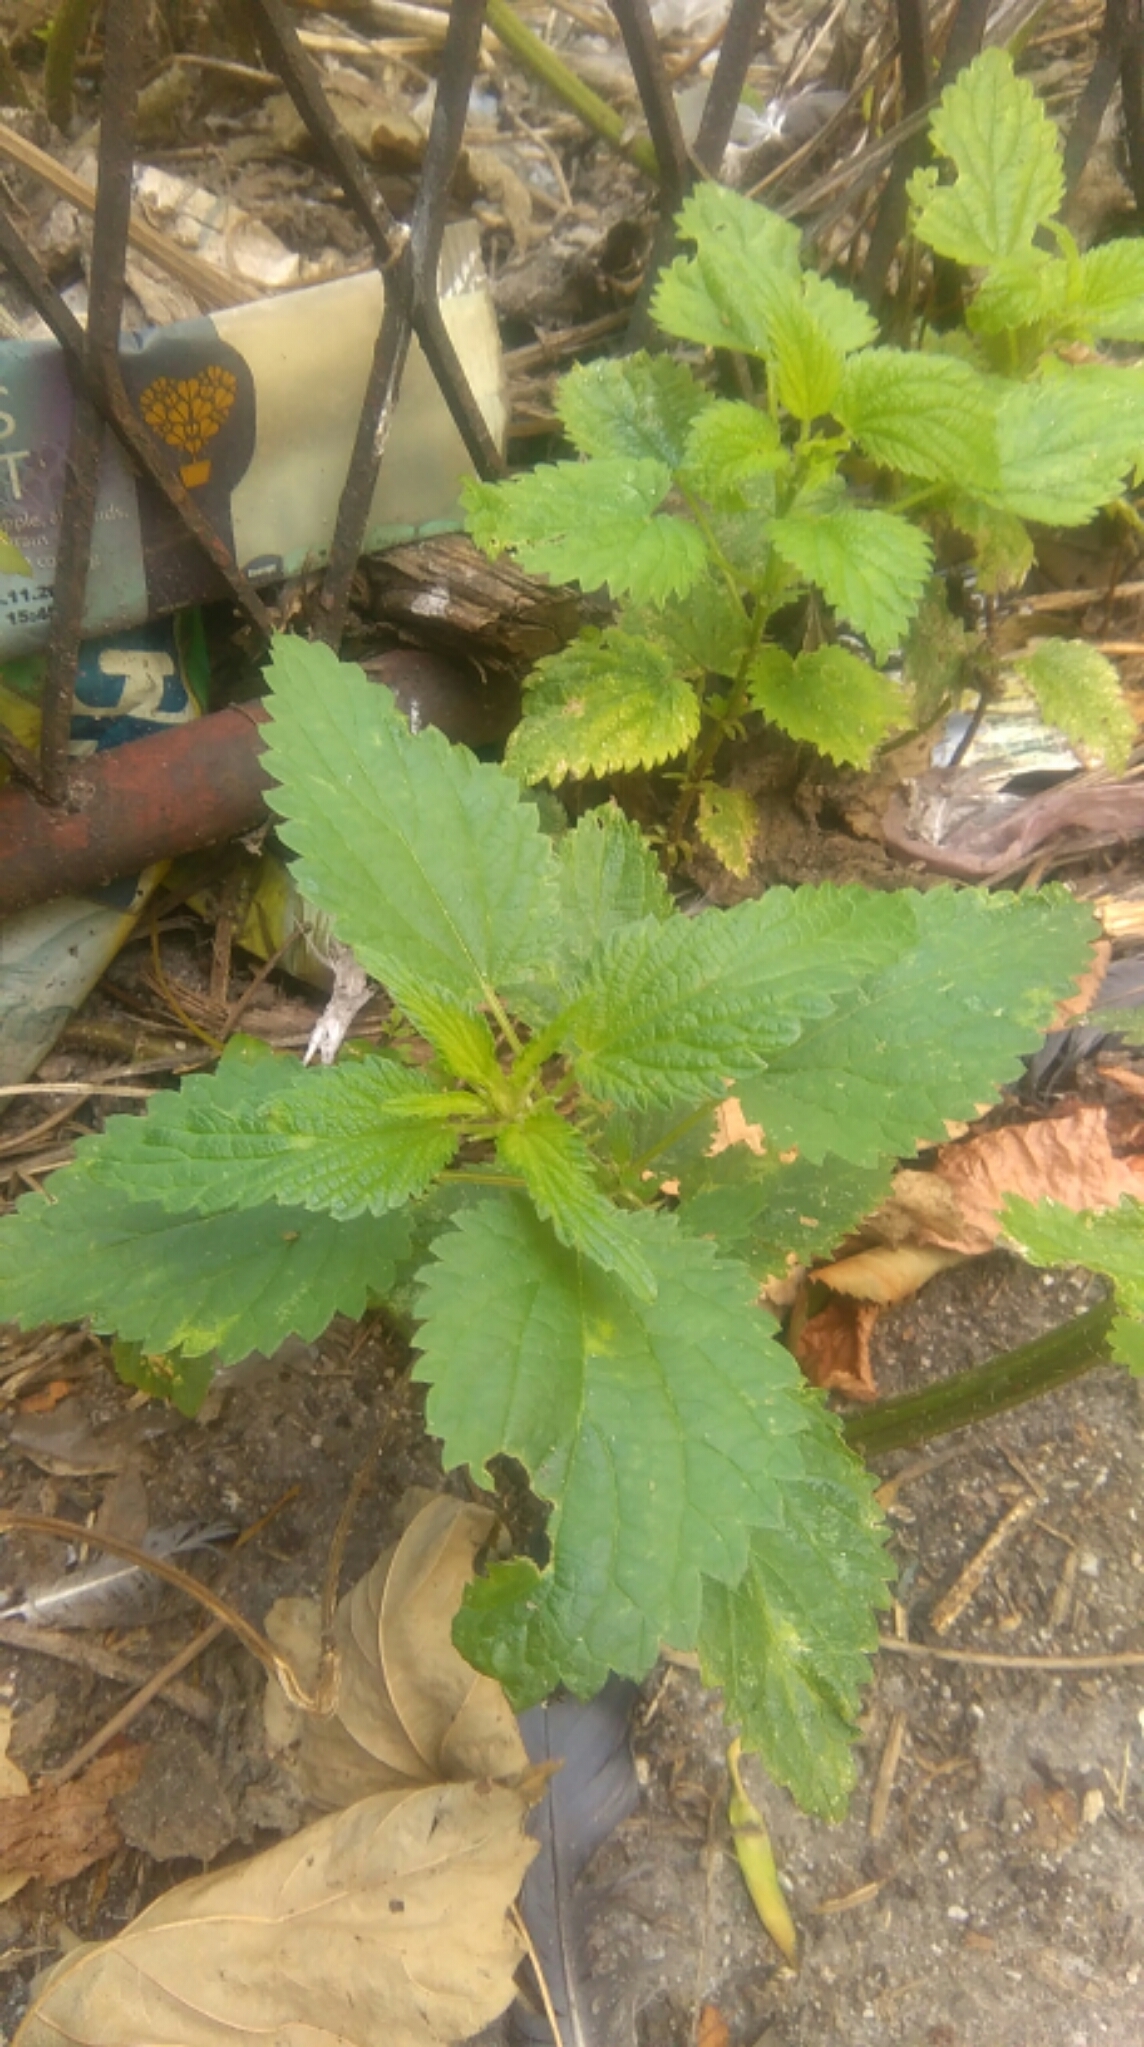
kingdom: Plantae
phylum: Tracheophyta
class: Magnoliopsida
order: Rosales
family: Urticaceae
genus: Urtica
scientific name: Urtica dioica
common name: Common nettle
